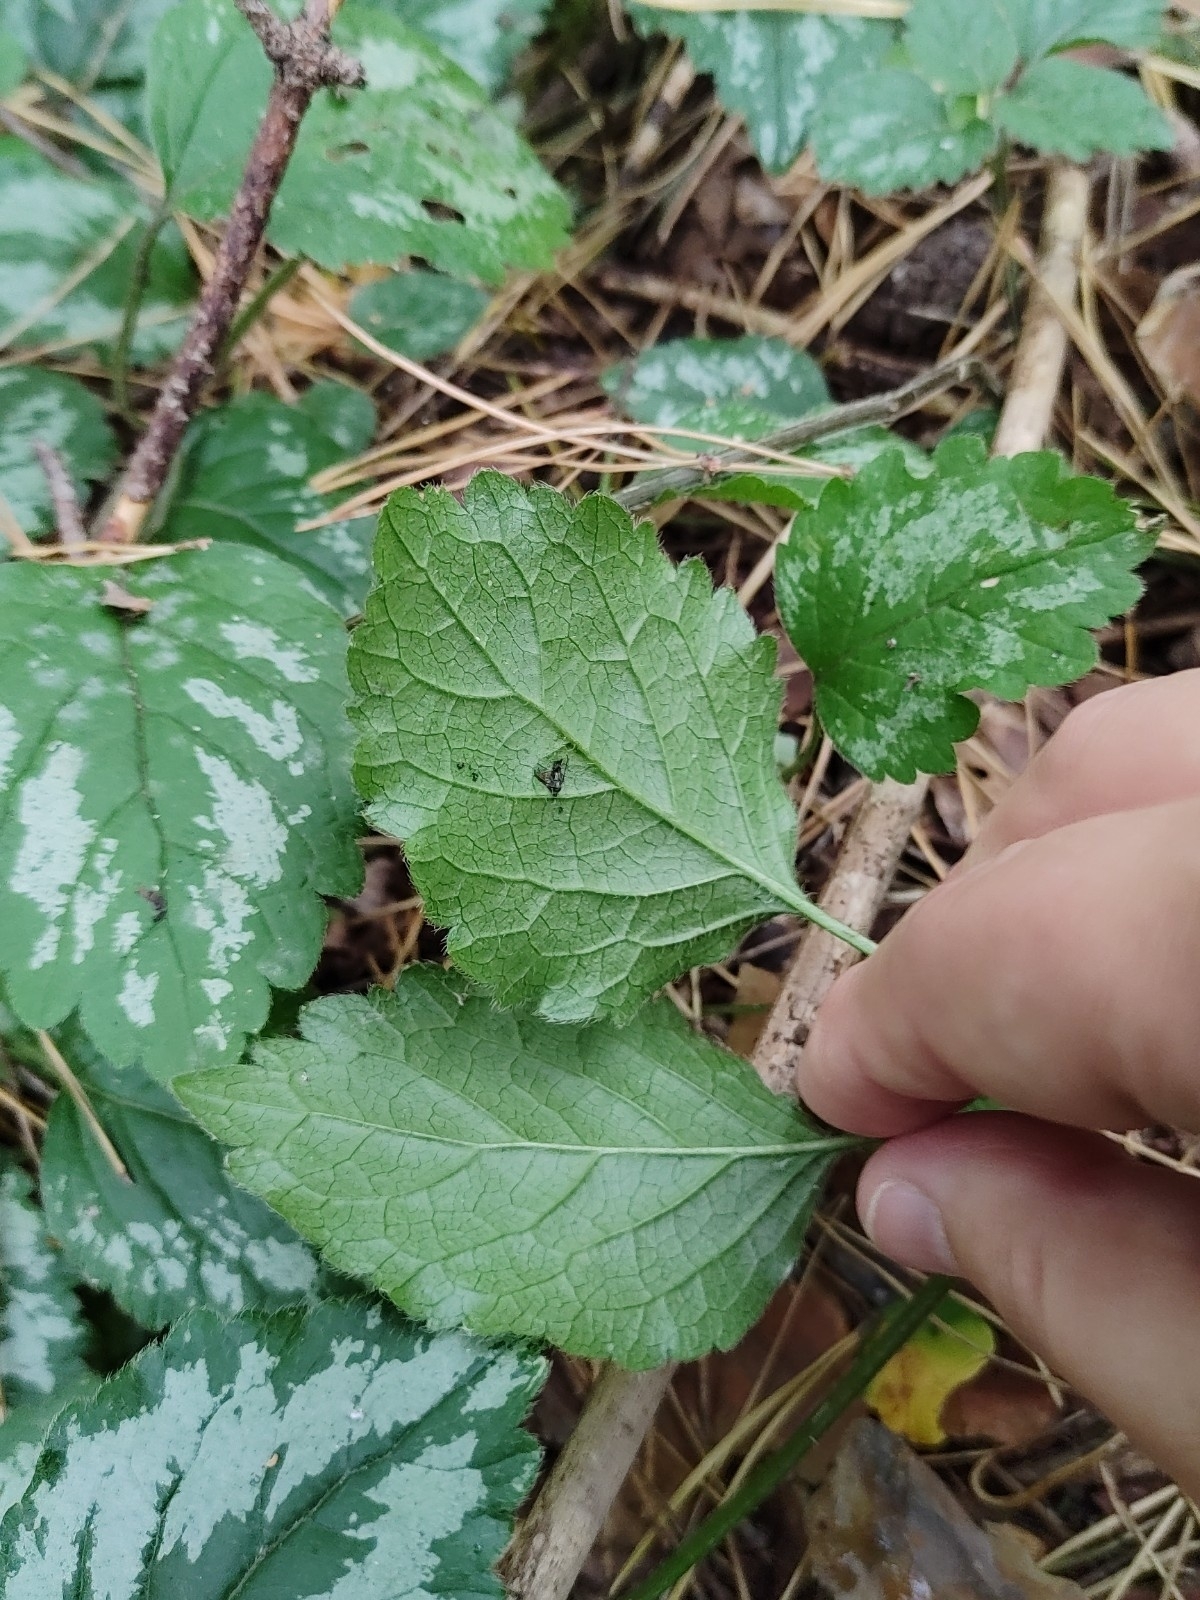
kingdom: Plantae
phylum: Tracheophyta
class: Magnoliopsida
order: Lamiales
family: Lamiaceae
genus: Lamium
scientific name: Lamium galeobdolon
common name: Yellow archangel
